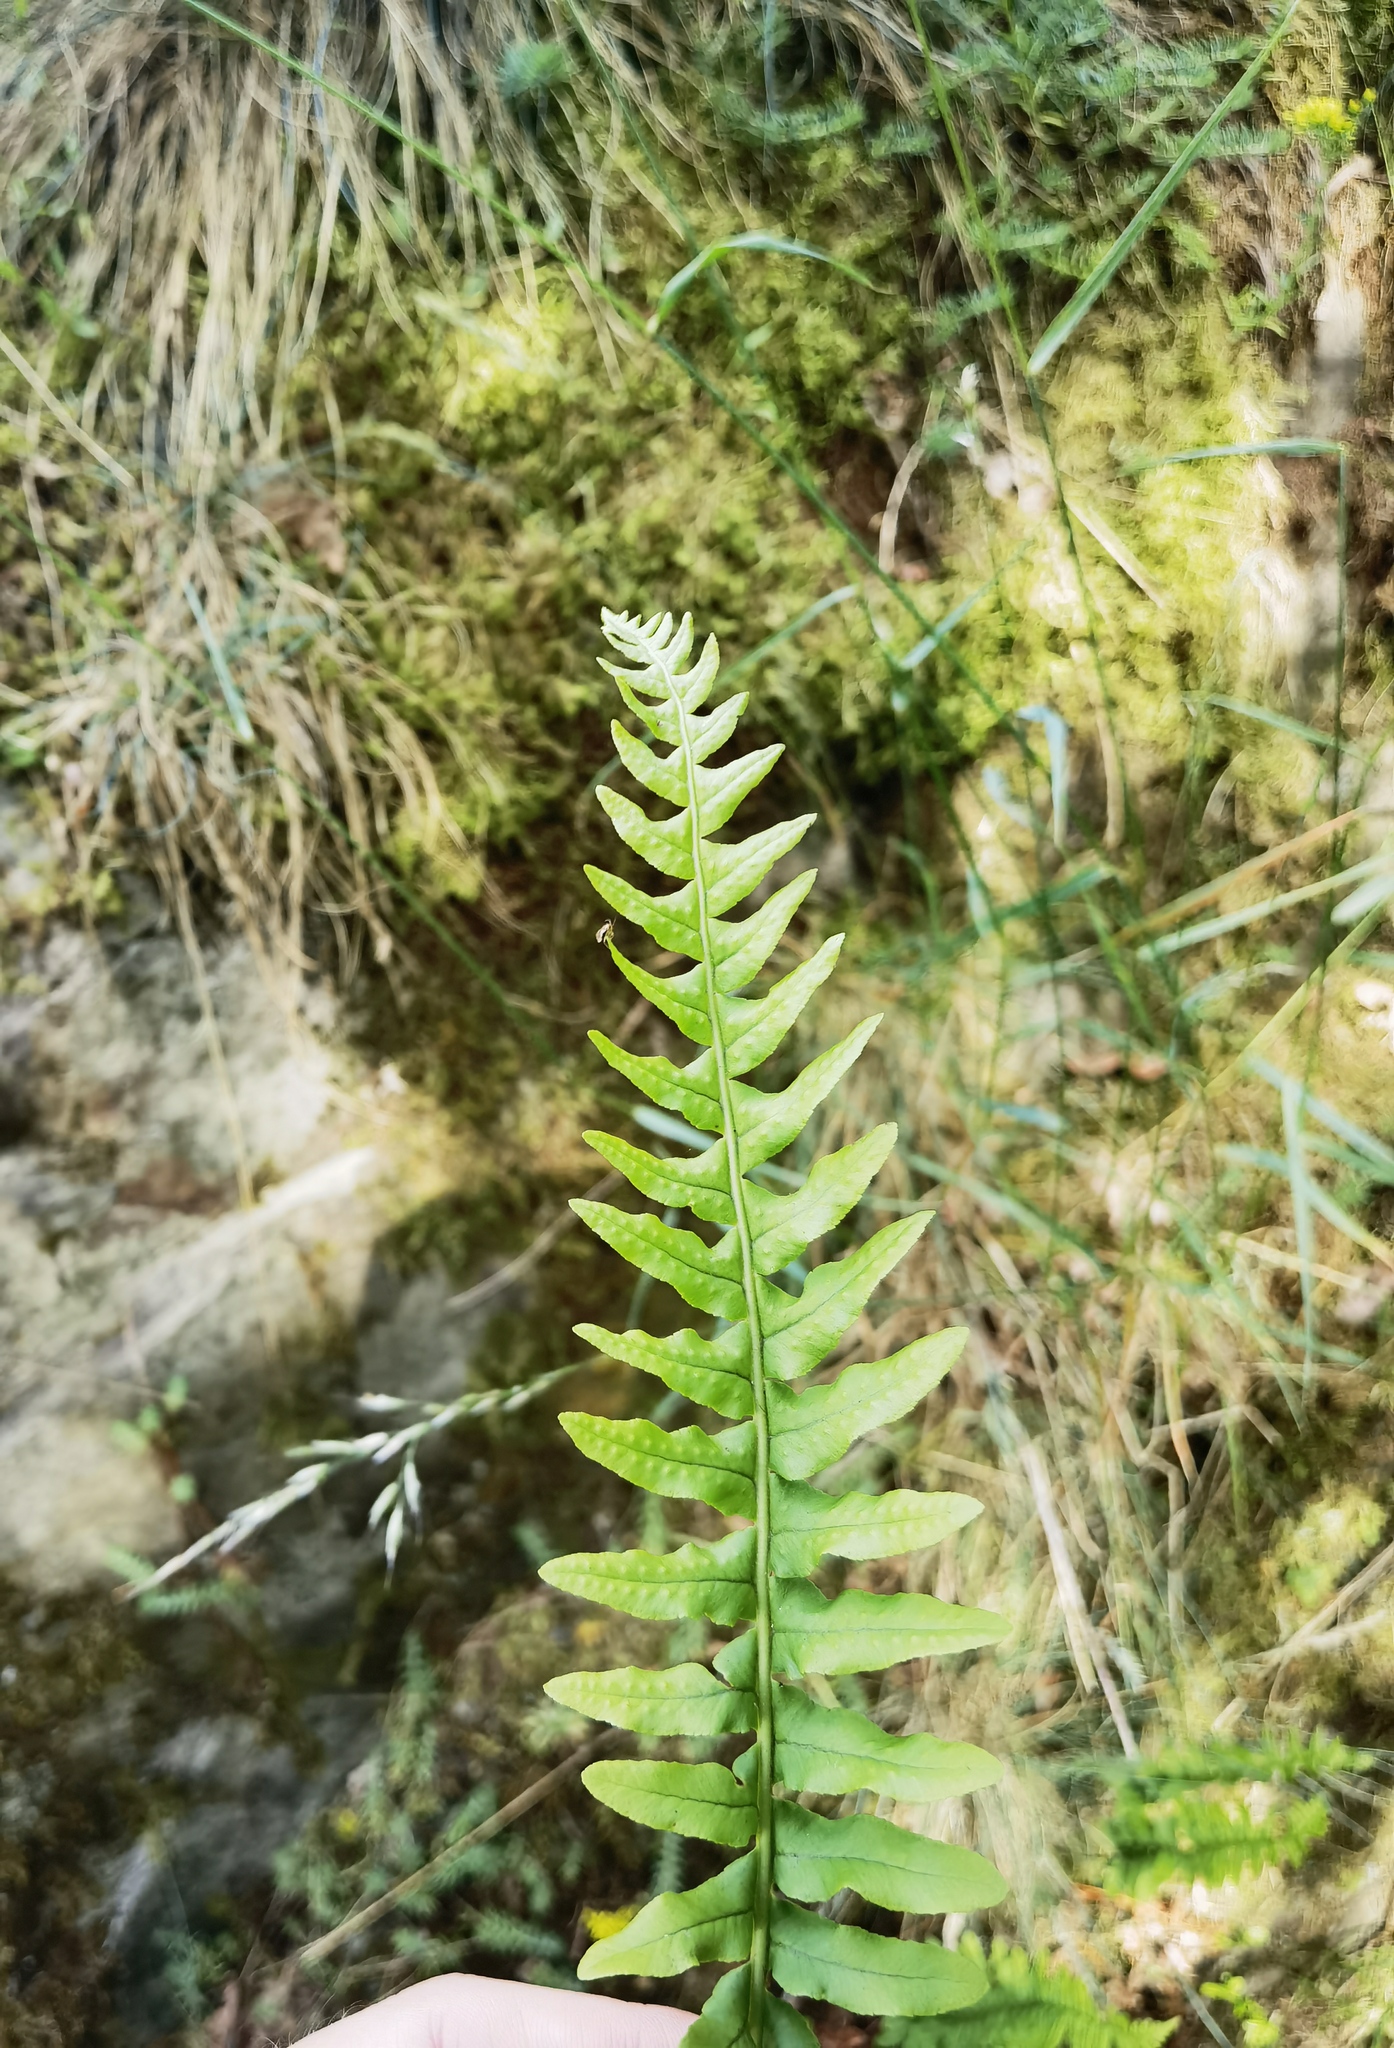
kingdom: Plantae
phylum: Tracheophyta
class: Polypodiopsida
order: Polypodiales
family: Polypodiaceae
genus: Polypodium
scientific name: Polypodium vulgare
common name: Common polypody
